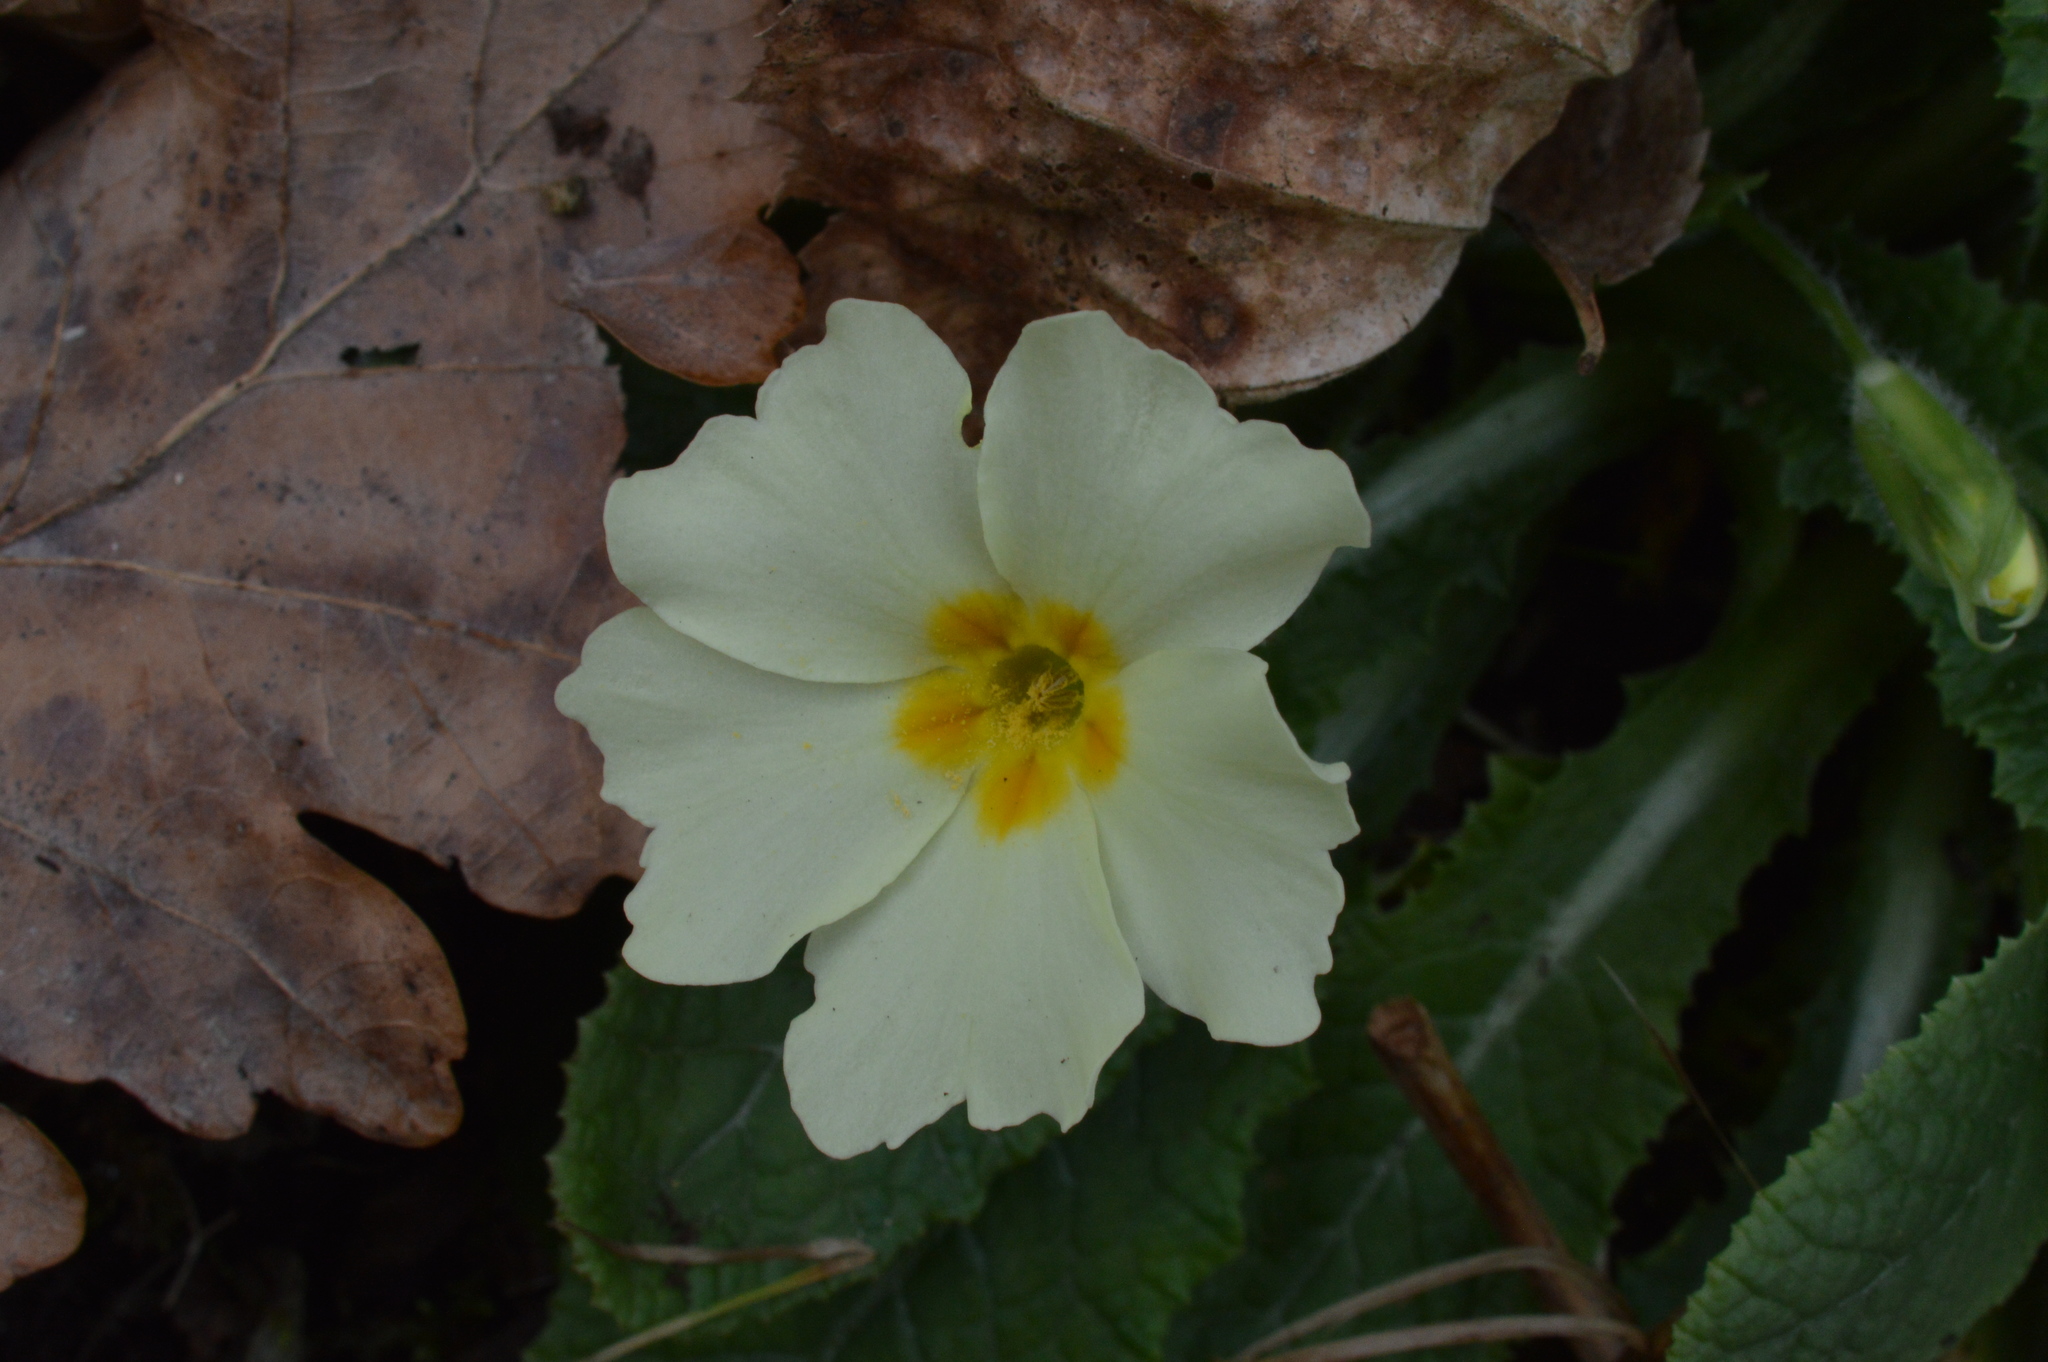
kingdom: Plantae
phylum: Tracheophyta
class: Magnoliopsida
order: Ericales
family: Primulaceae
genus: Primula
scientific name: Primula vulgaris
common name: Primrose
